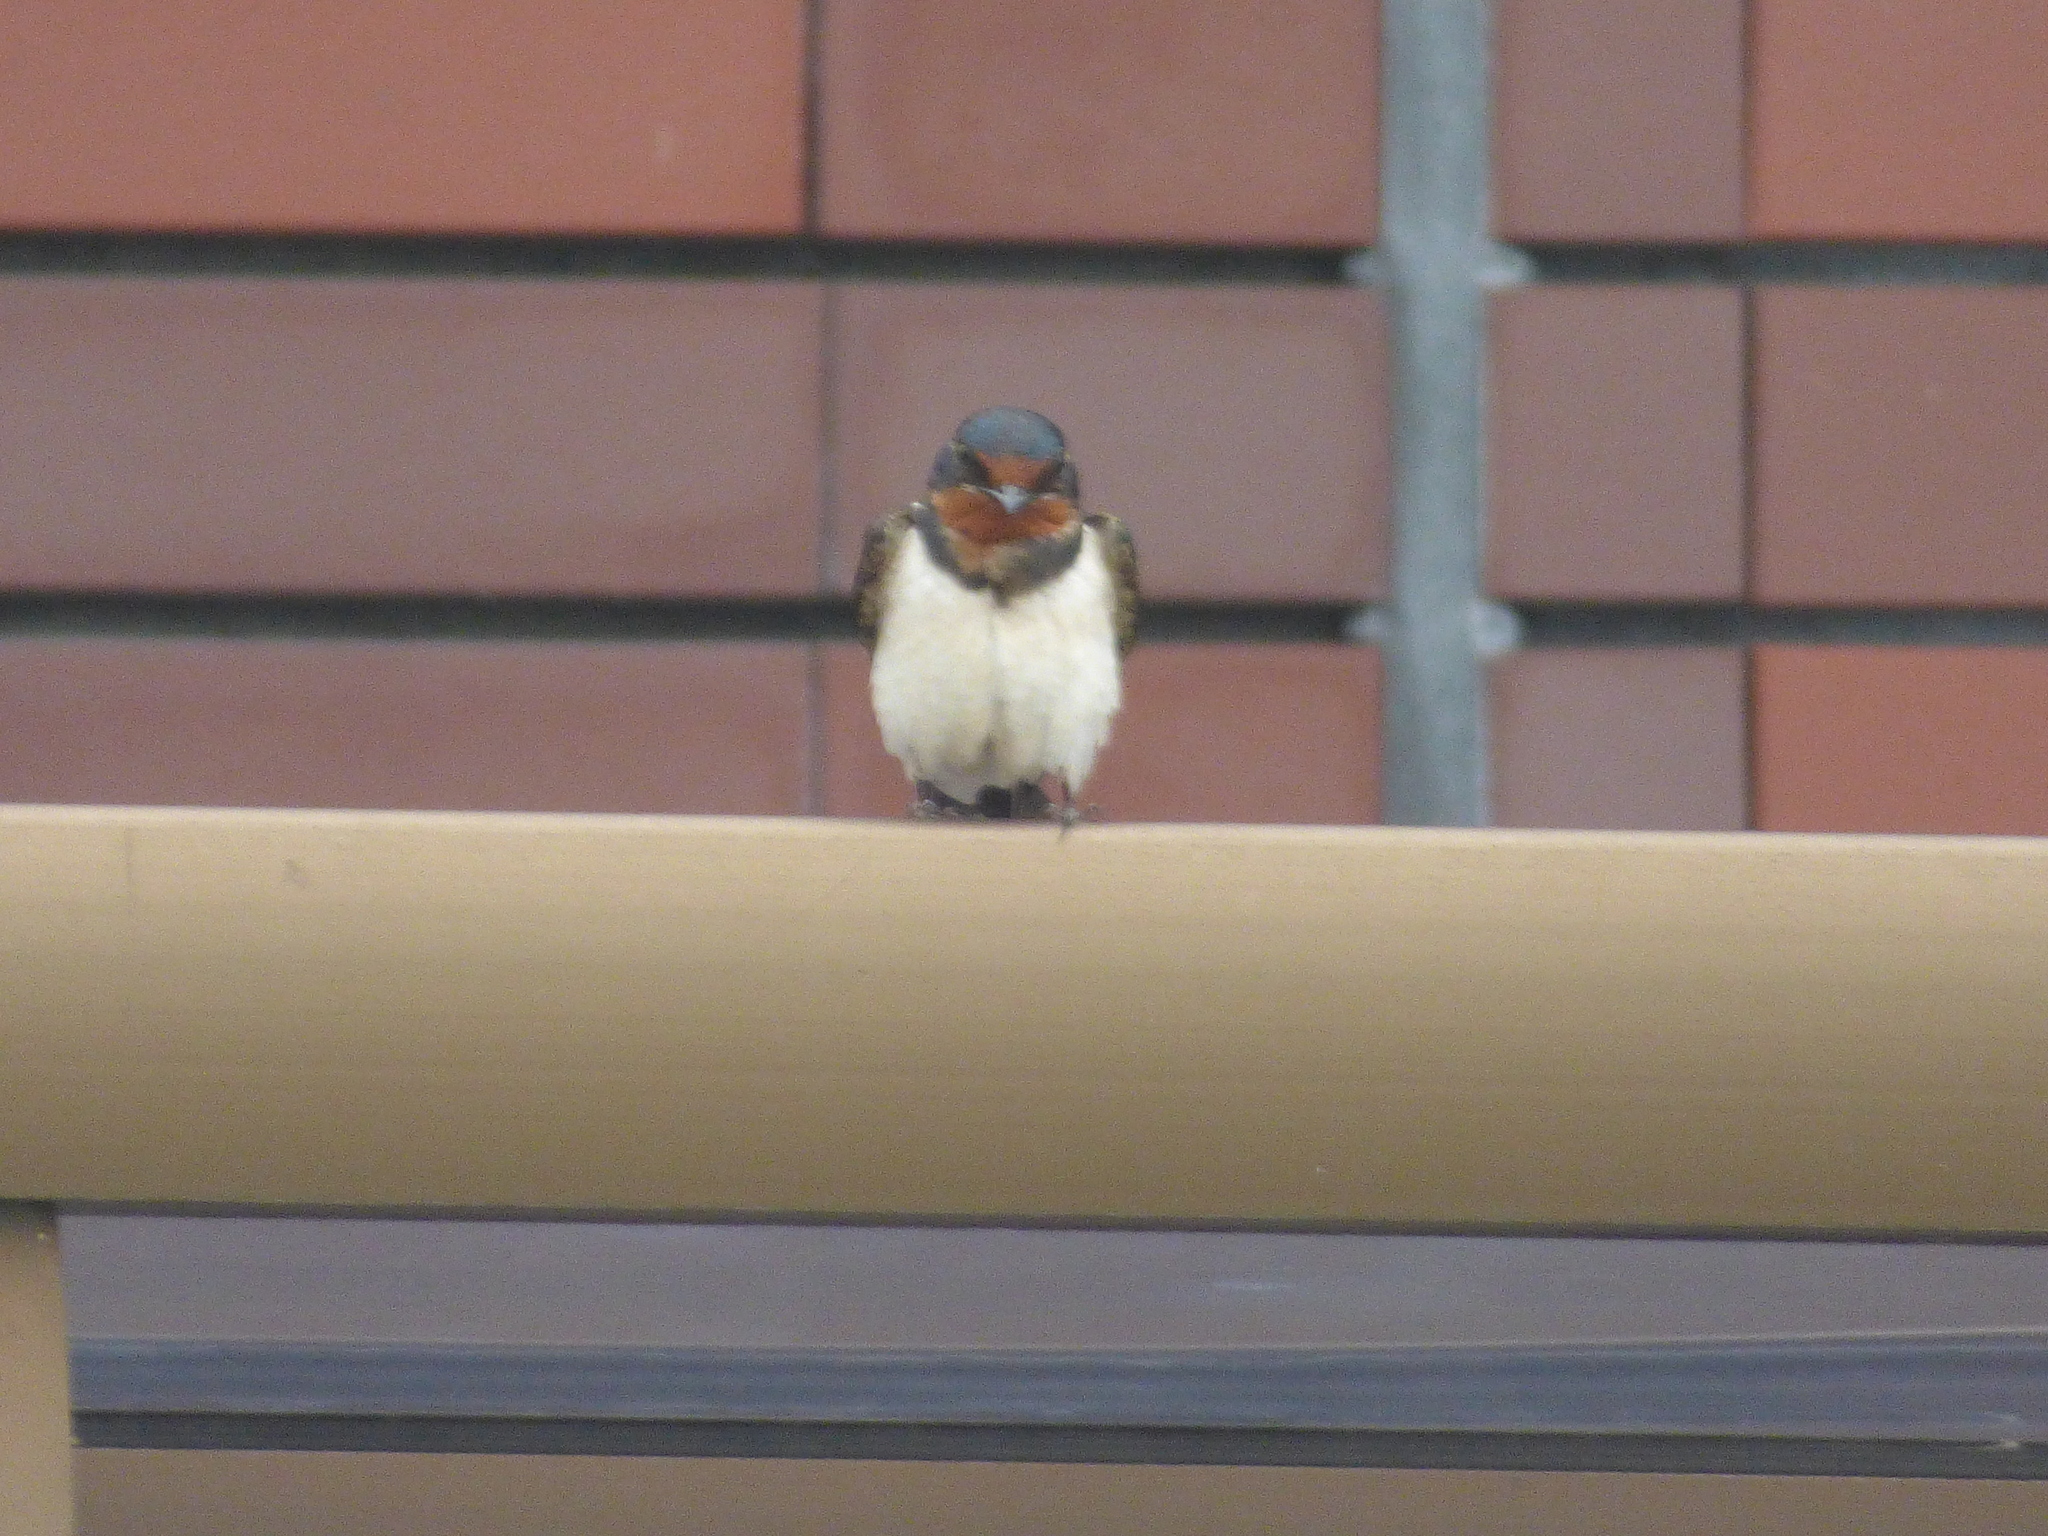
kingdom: Animalia
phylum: Chordata
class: Aves
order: Passeriformes
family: Hirundinidae
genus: Hirundo
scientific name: Hirundo rustica
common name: Barn swallow
